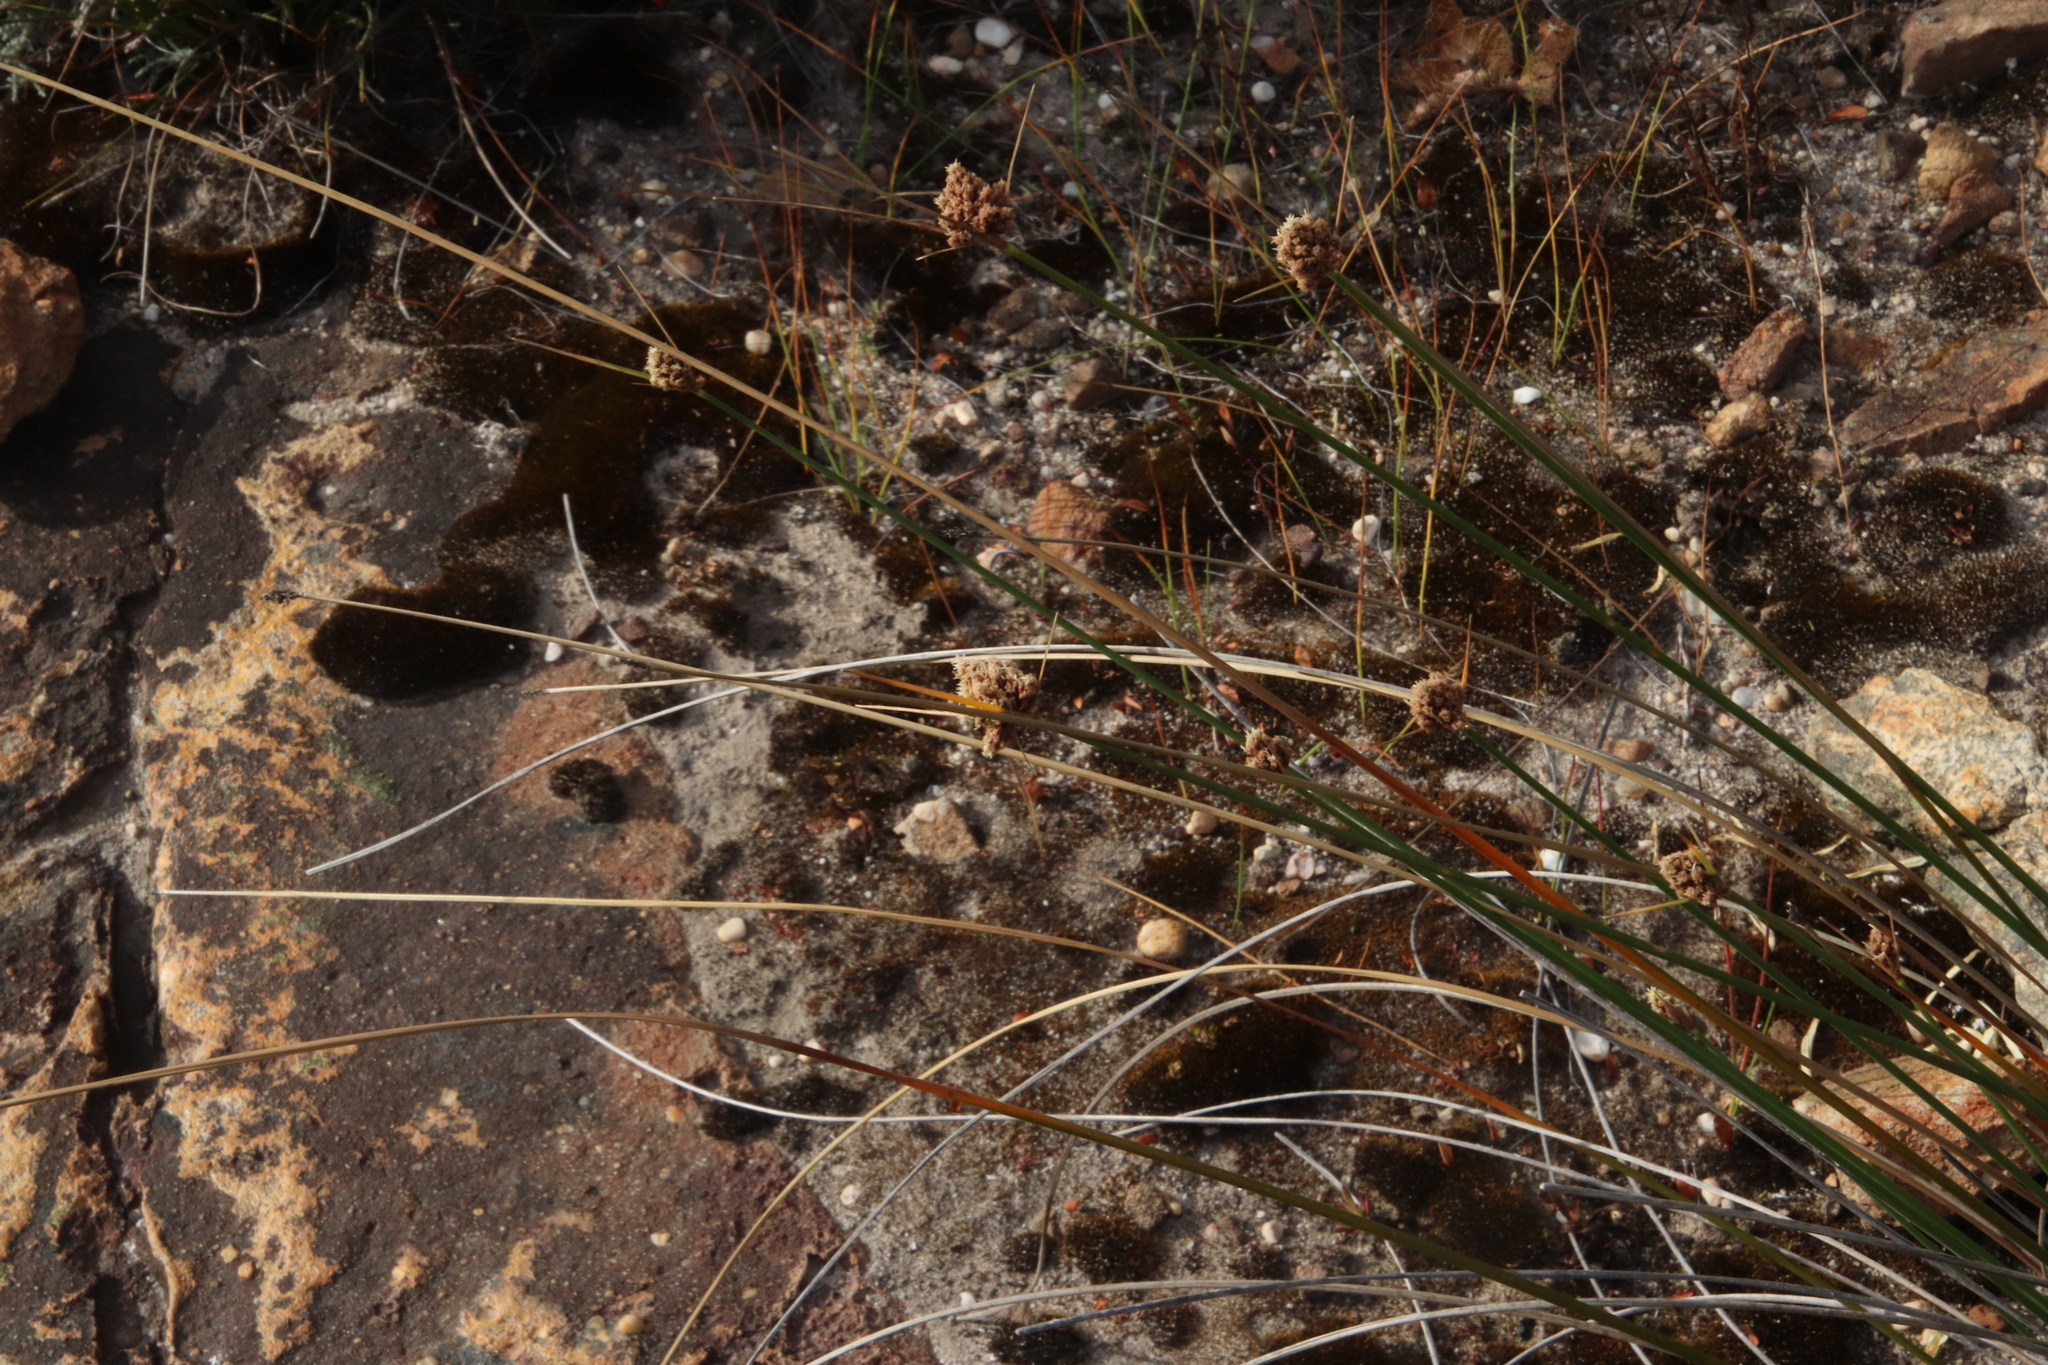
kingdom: Plantae
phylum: Tracheophyta
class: Liliopsida
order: Poales
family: Cyperaceae
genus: Ficinia
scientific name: Ficinia brevifolia
